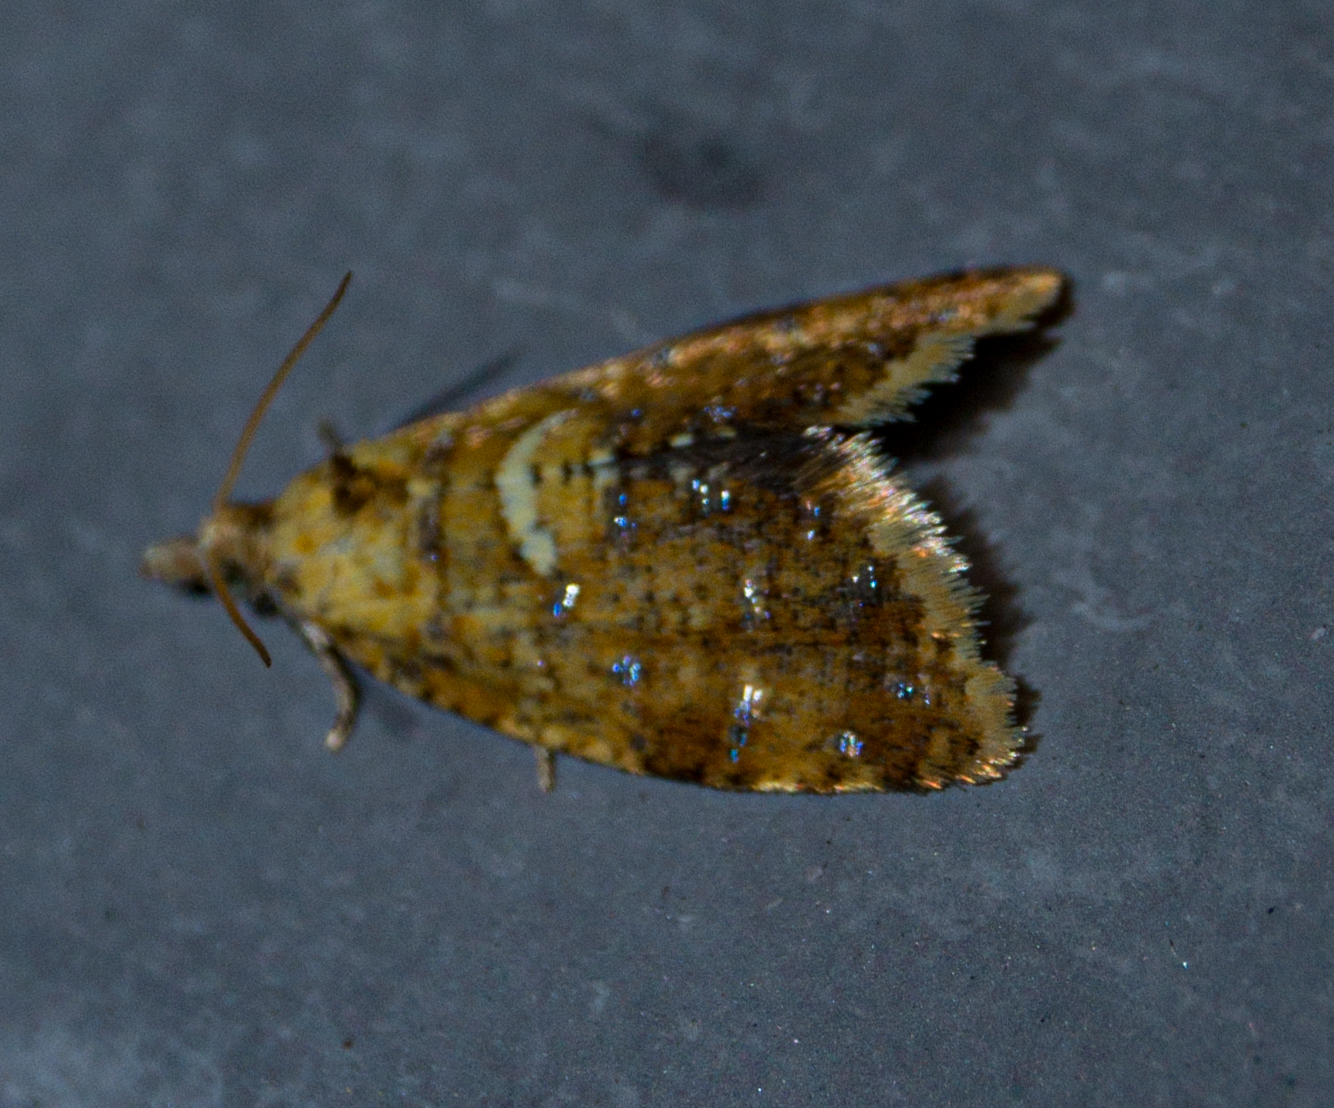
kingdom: Animalia
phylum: Arthropoda
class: Insecta
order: Lepidoptera
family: Tortricidae
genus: Pseudargyrotoza
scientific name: Pseudargyrotoza conwagana
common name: Yellow-spot twist
